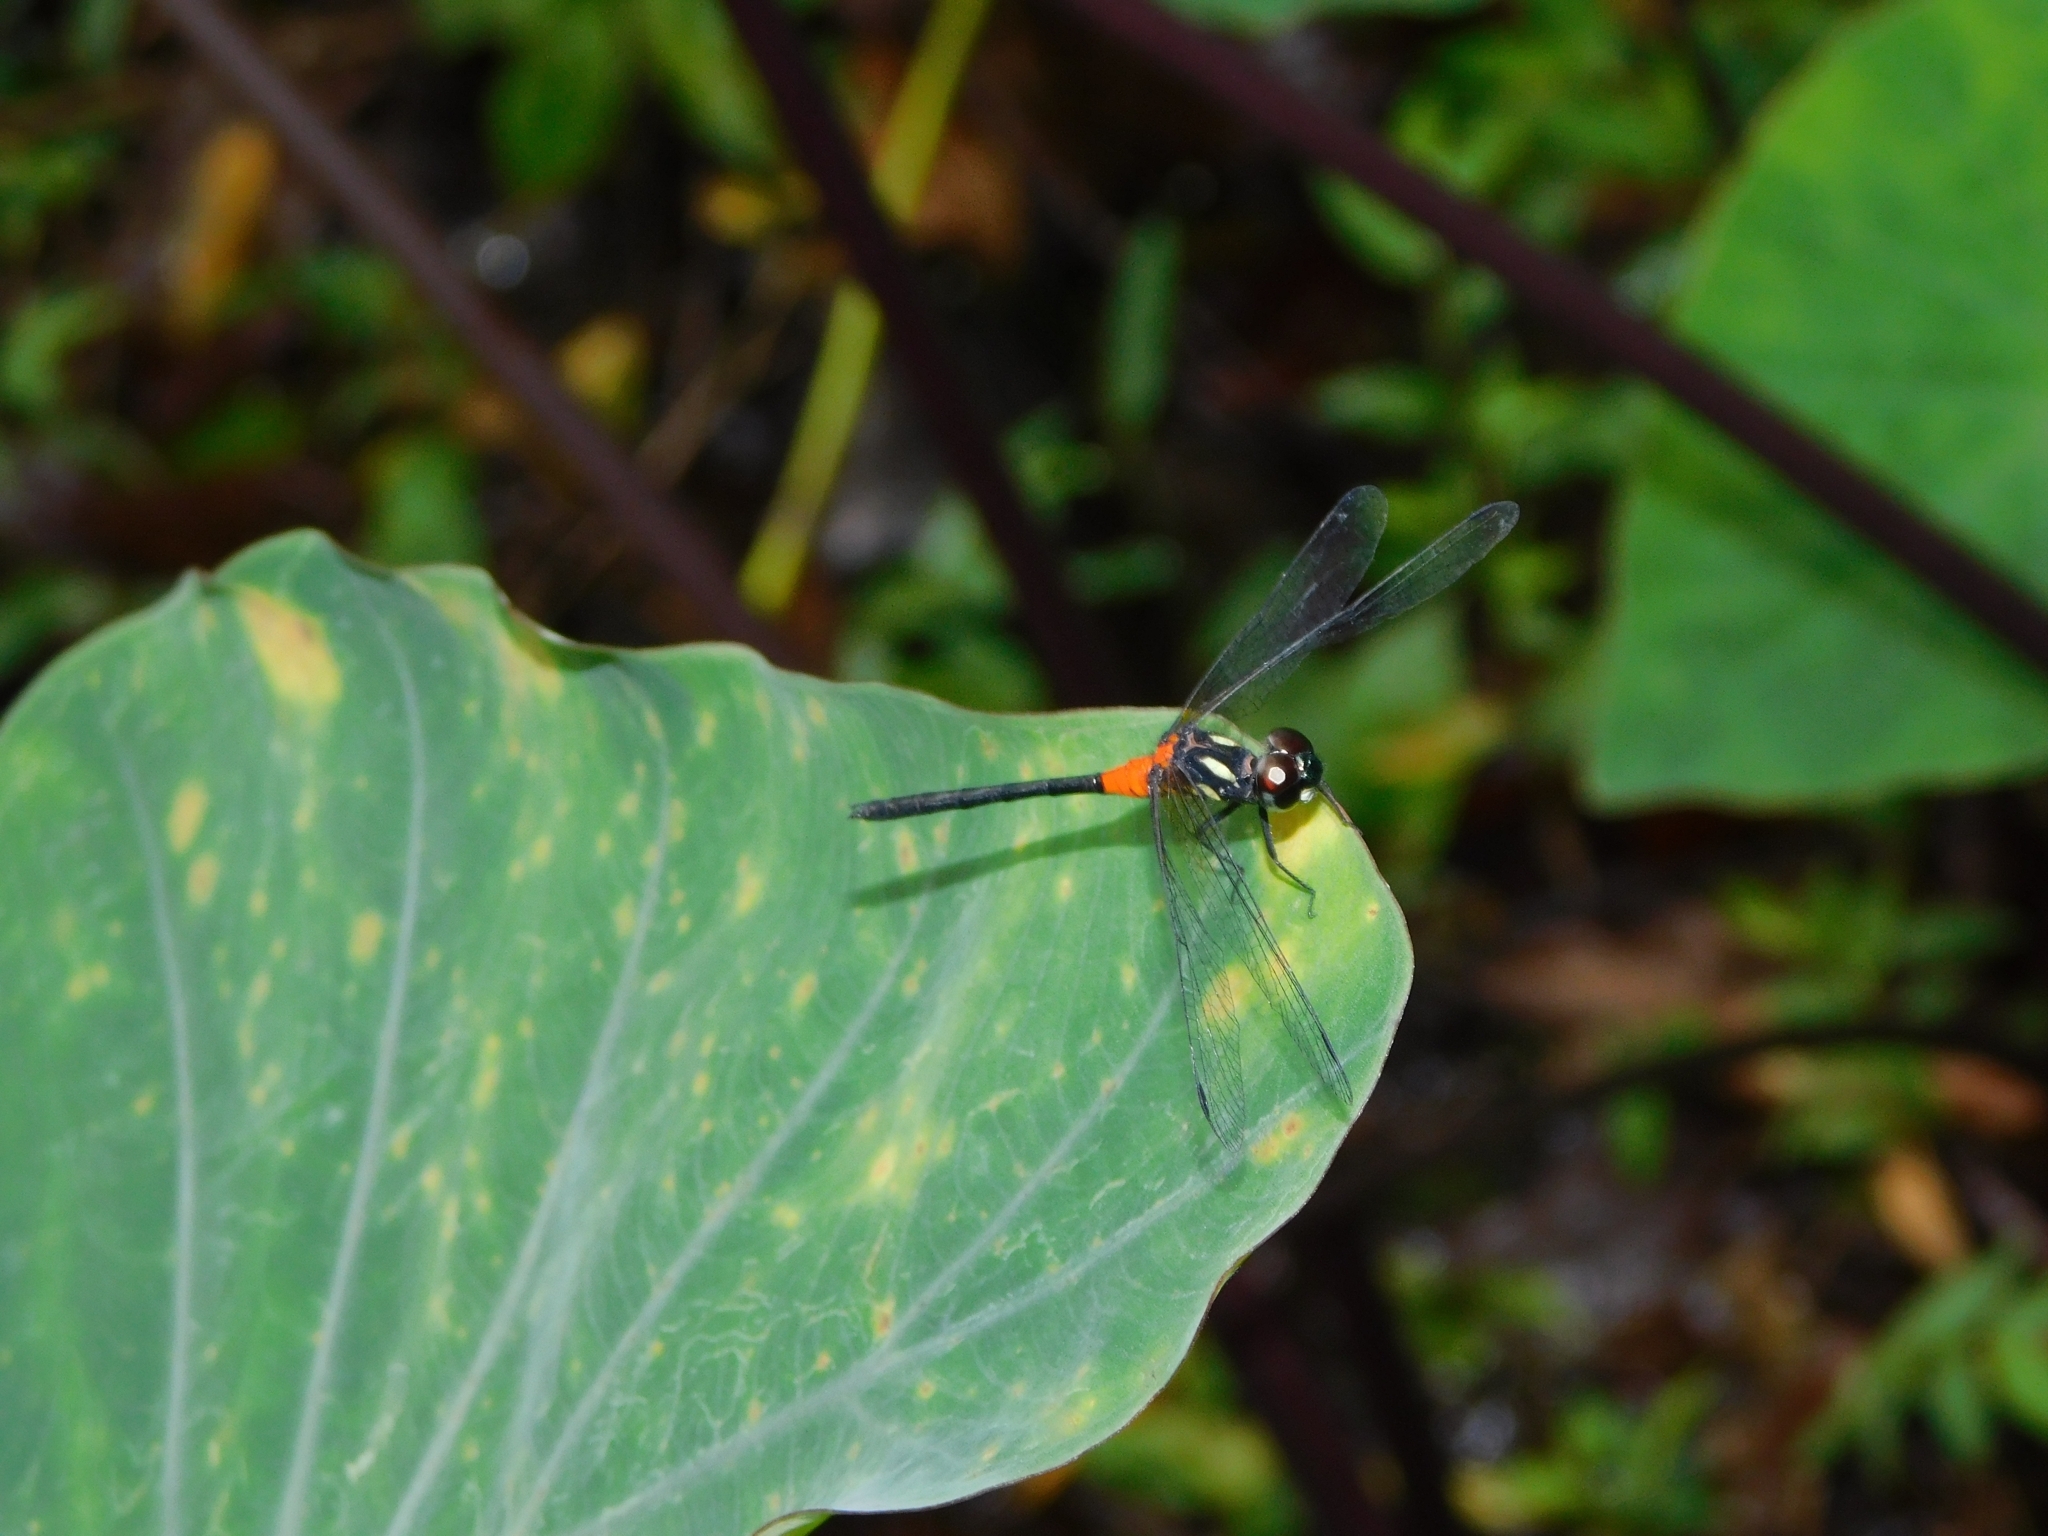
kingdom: Animalia
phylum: Arthropoda
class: Insecta
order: Odonata
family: Libellulidae
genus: Epithemis
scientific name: Epithemis mariae
